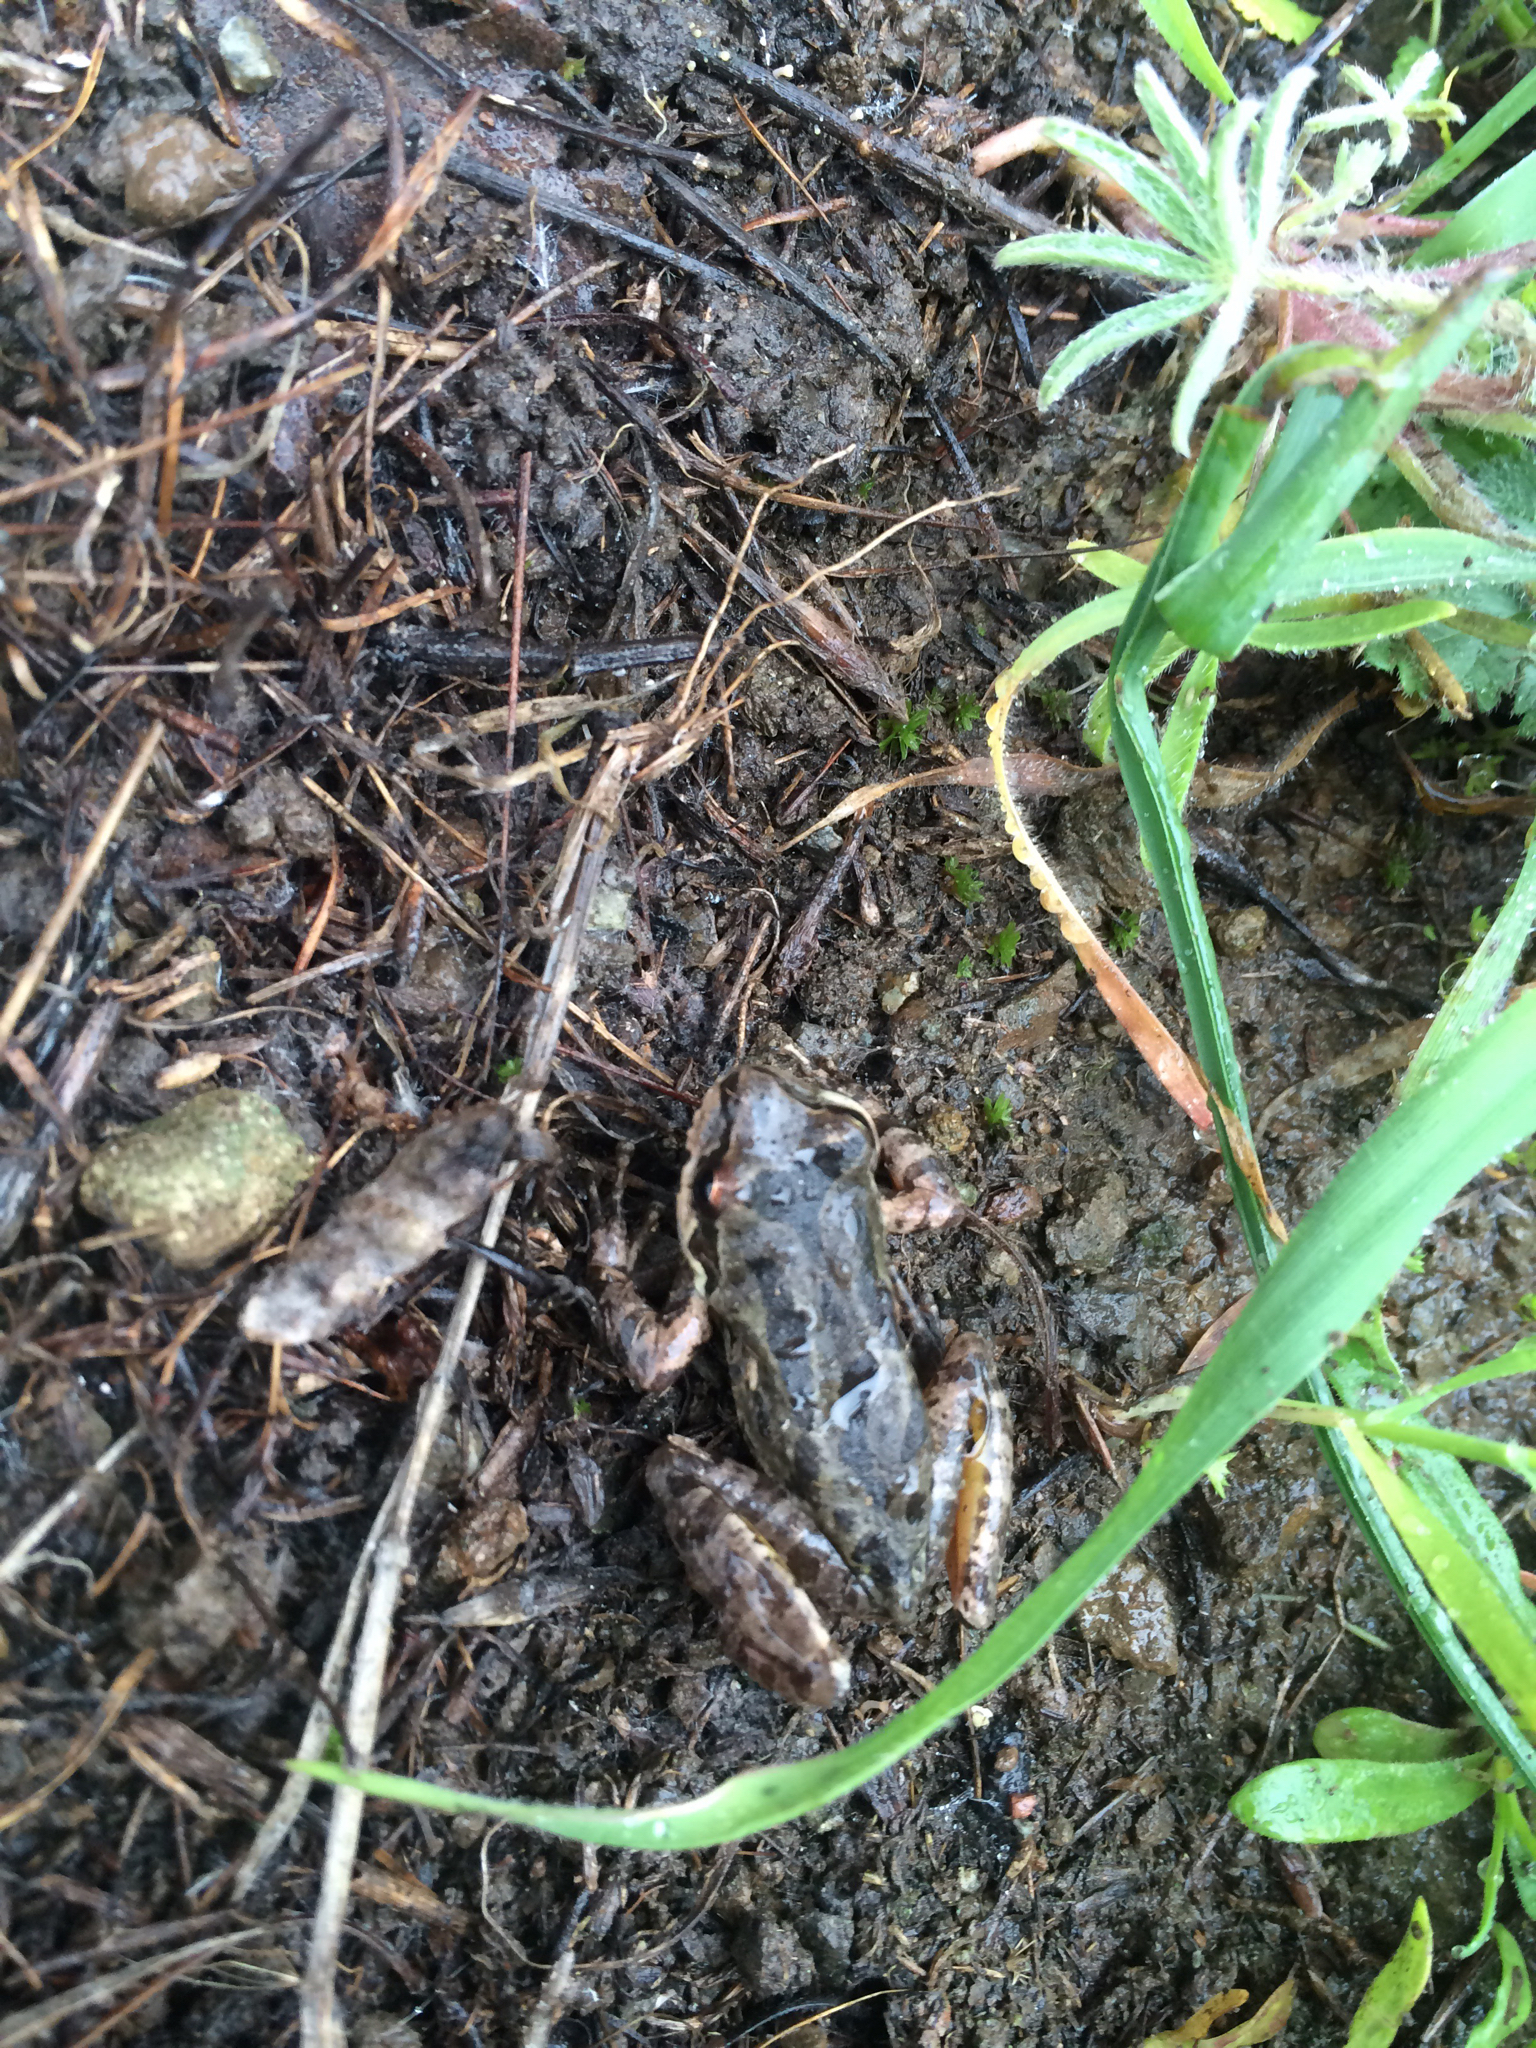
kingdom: Animalia
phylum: Chordata
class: Amphibia
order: Anura
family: Hylidae
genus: Pseudacris
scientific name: Pseudacris regilla
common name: Pacific chorus frog
